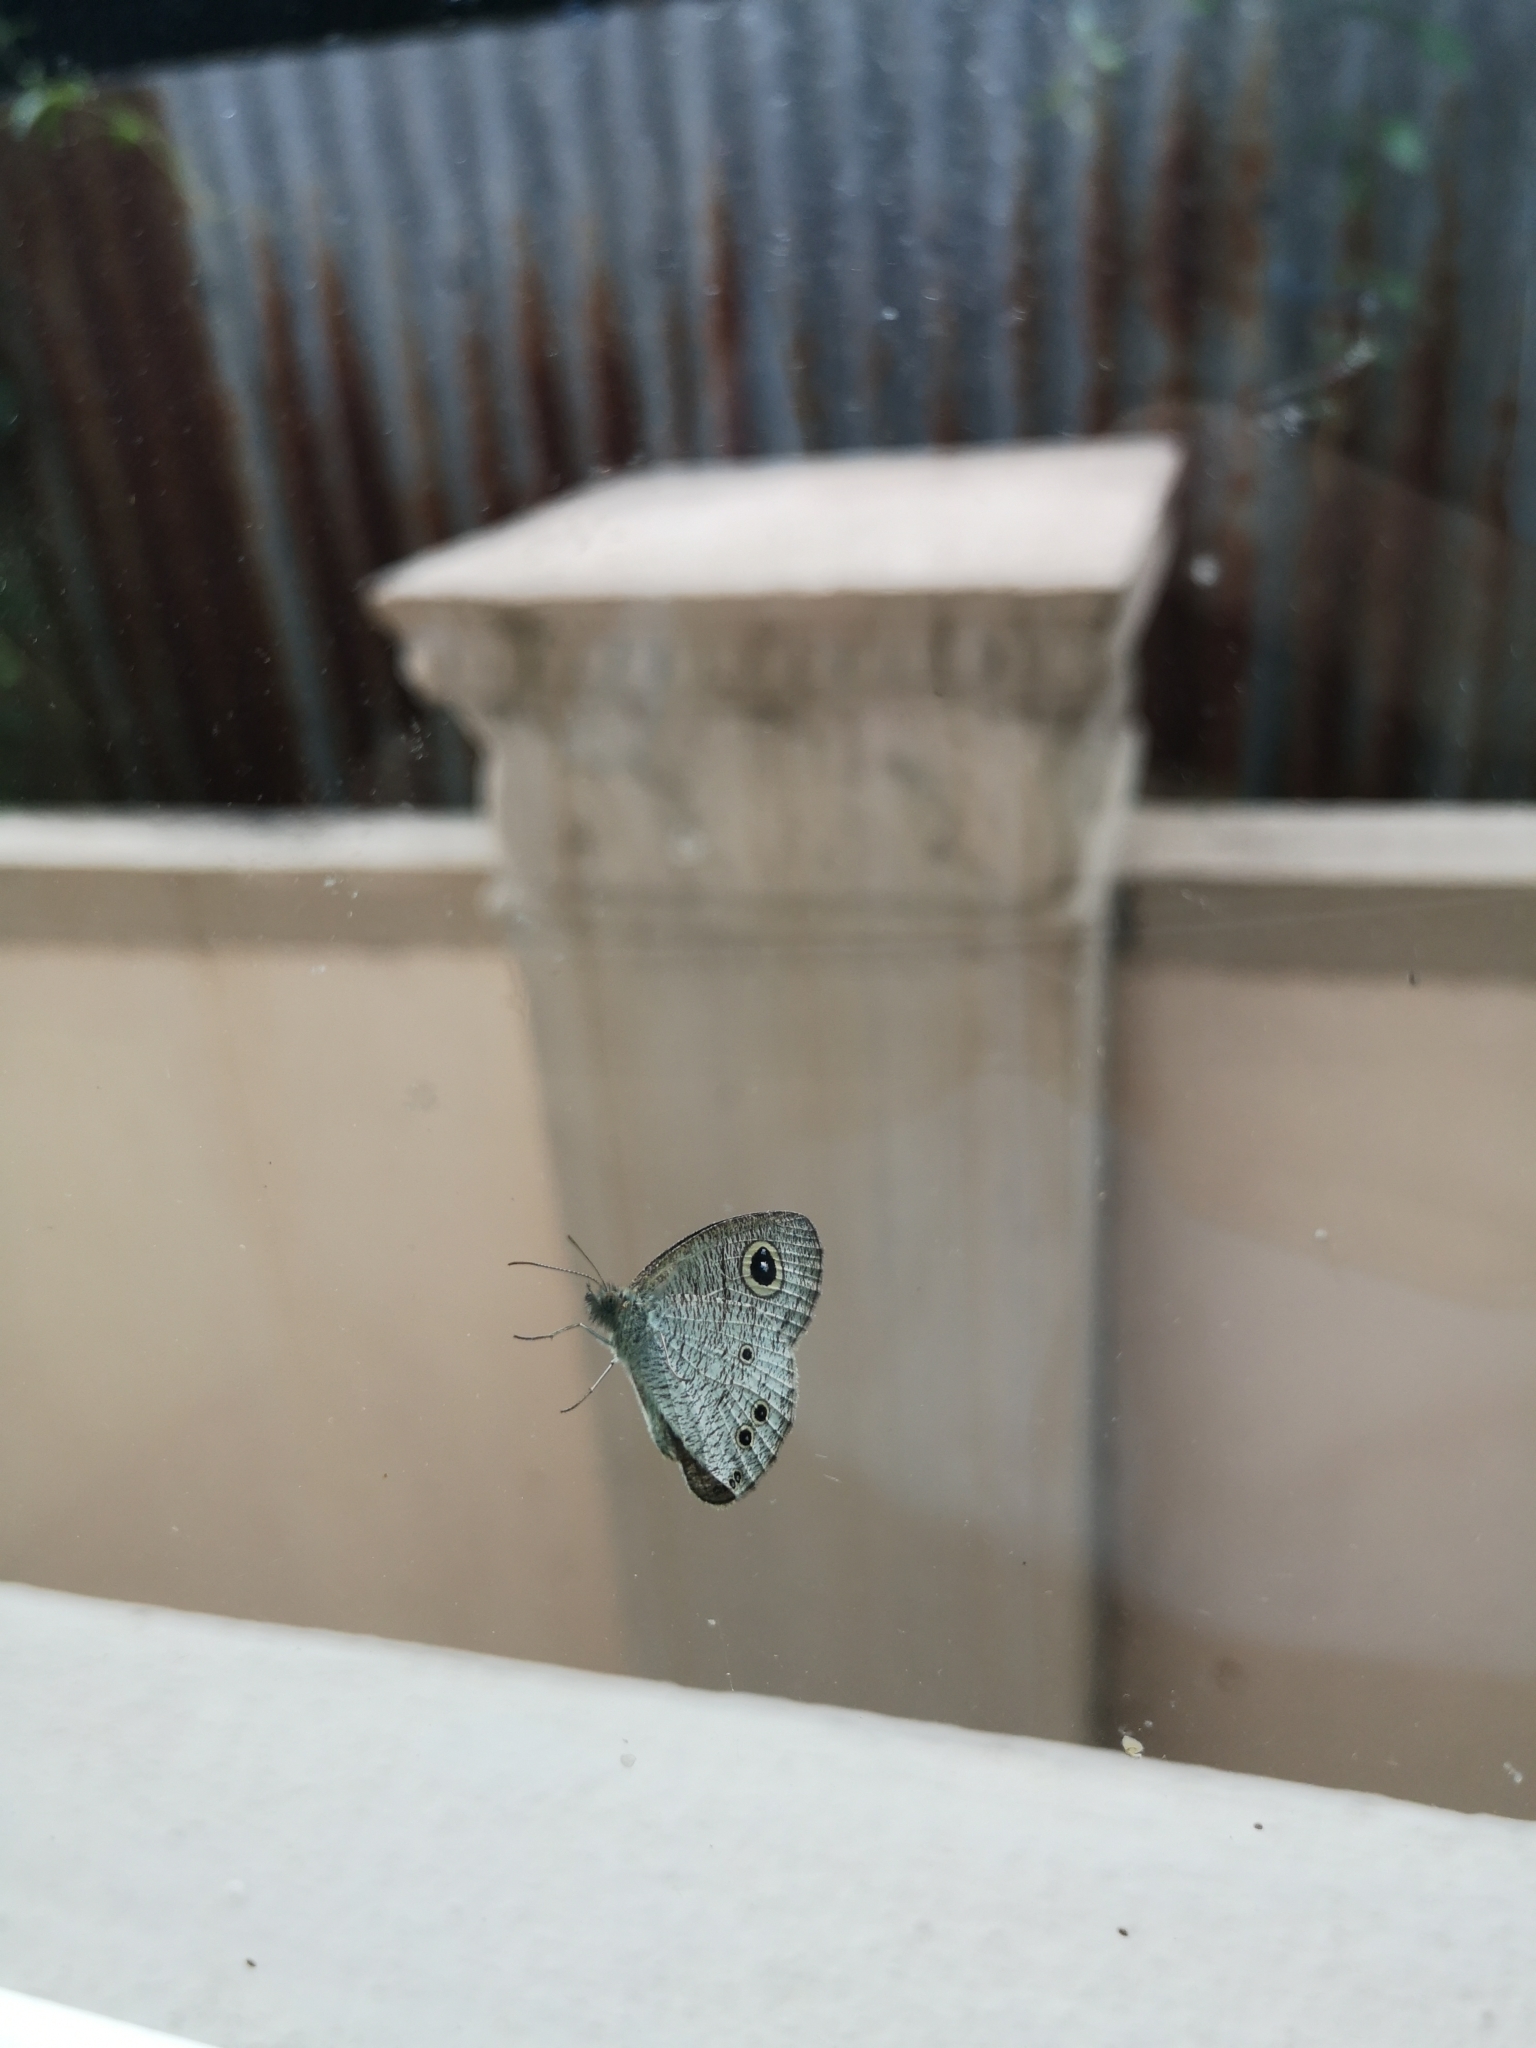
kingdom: Animalia
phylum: Arthropoda
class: Insecta
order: Lepidoptera
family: Nymphalidae
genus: Ypthima
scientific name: Ypthima huebneri
